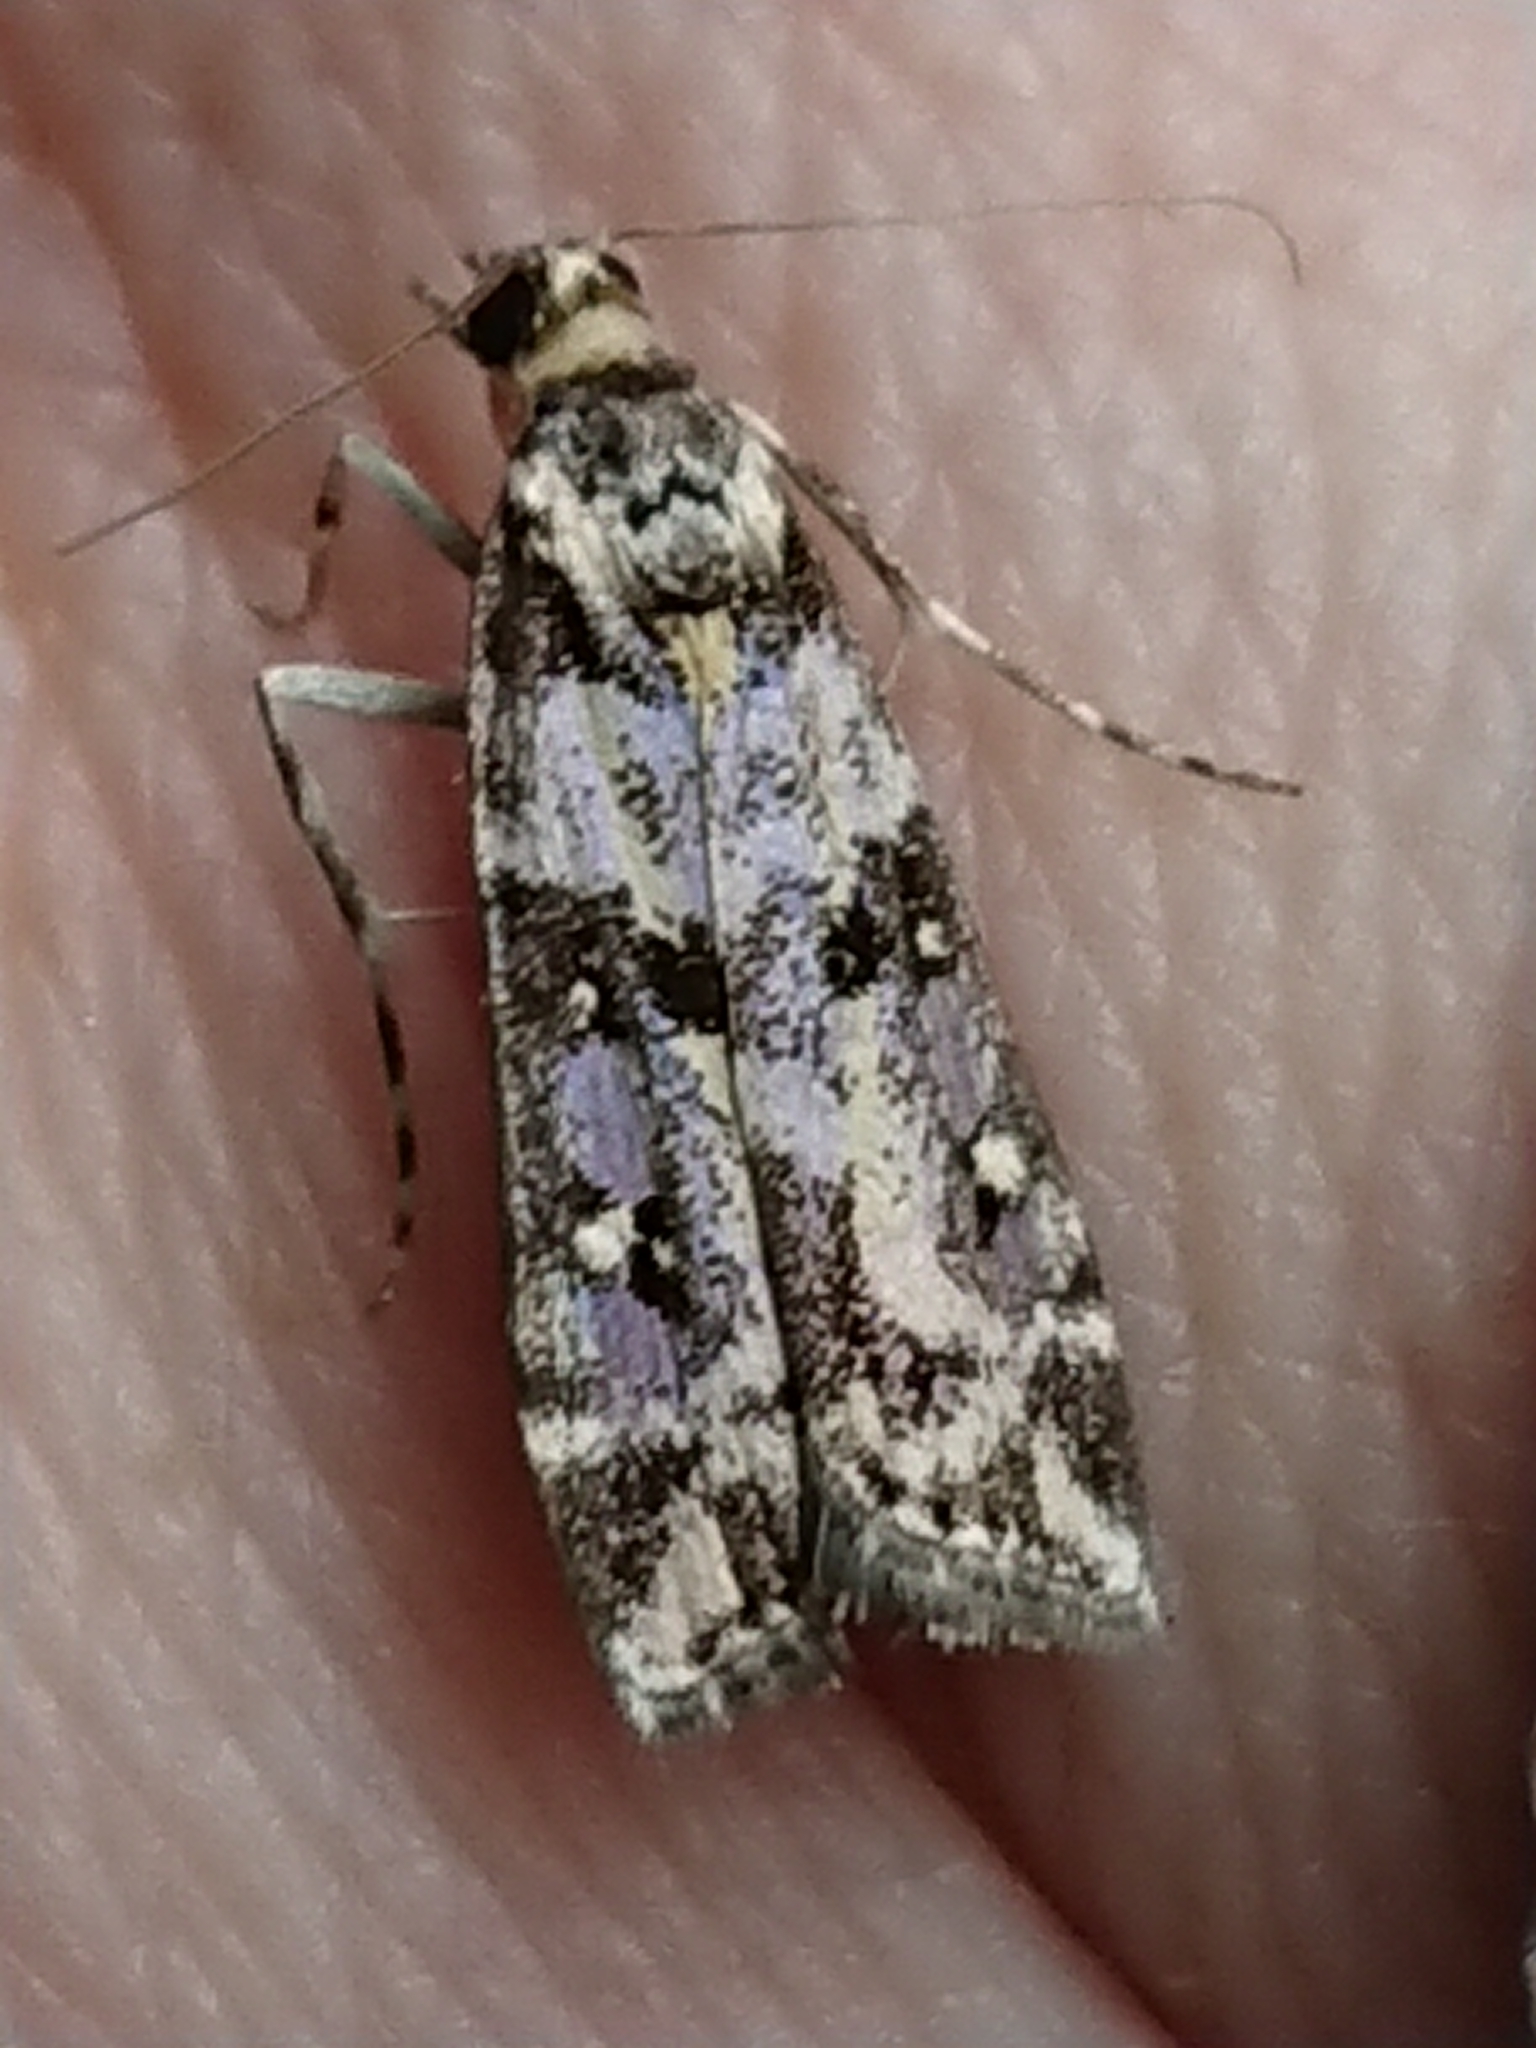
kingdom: Animalia
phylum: Arthropoda
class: Insecta
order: Lepidoptera
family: Crambidae
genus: Eudonia
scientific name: Eudonia diphtheralis
